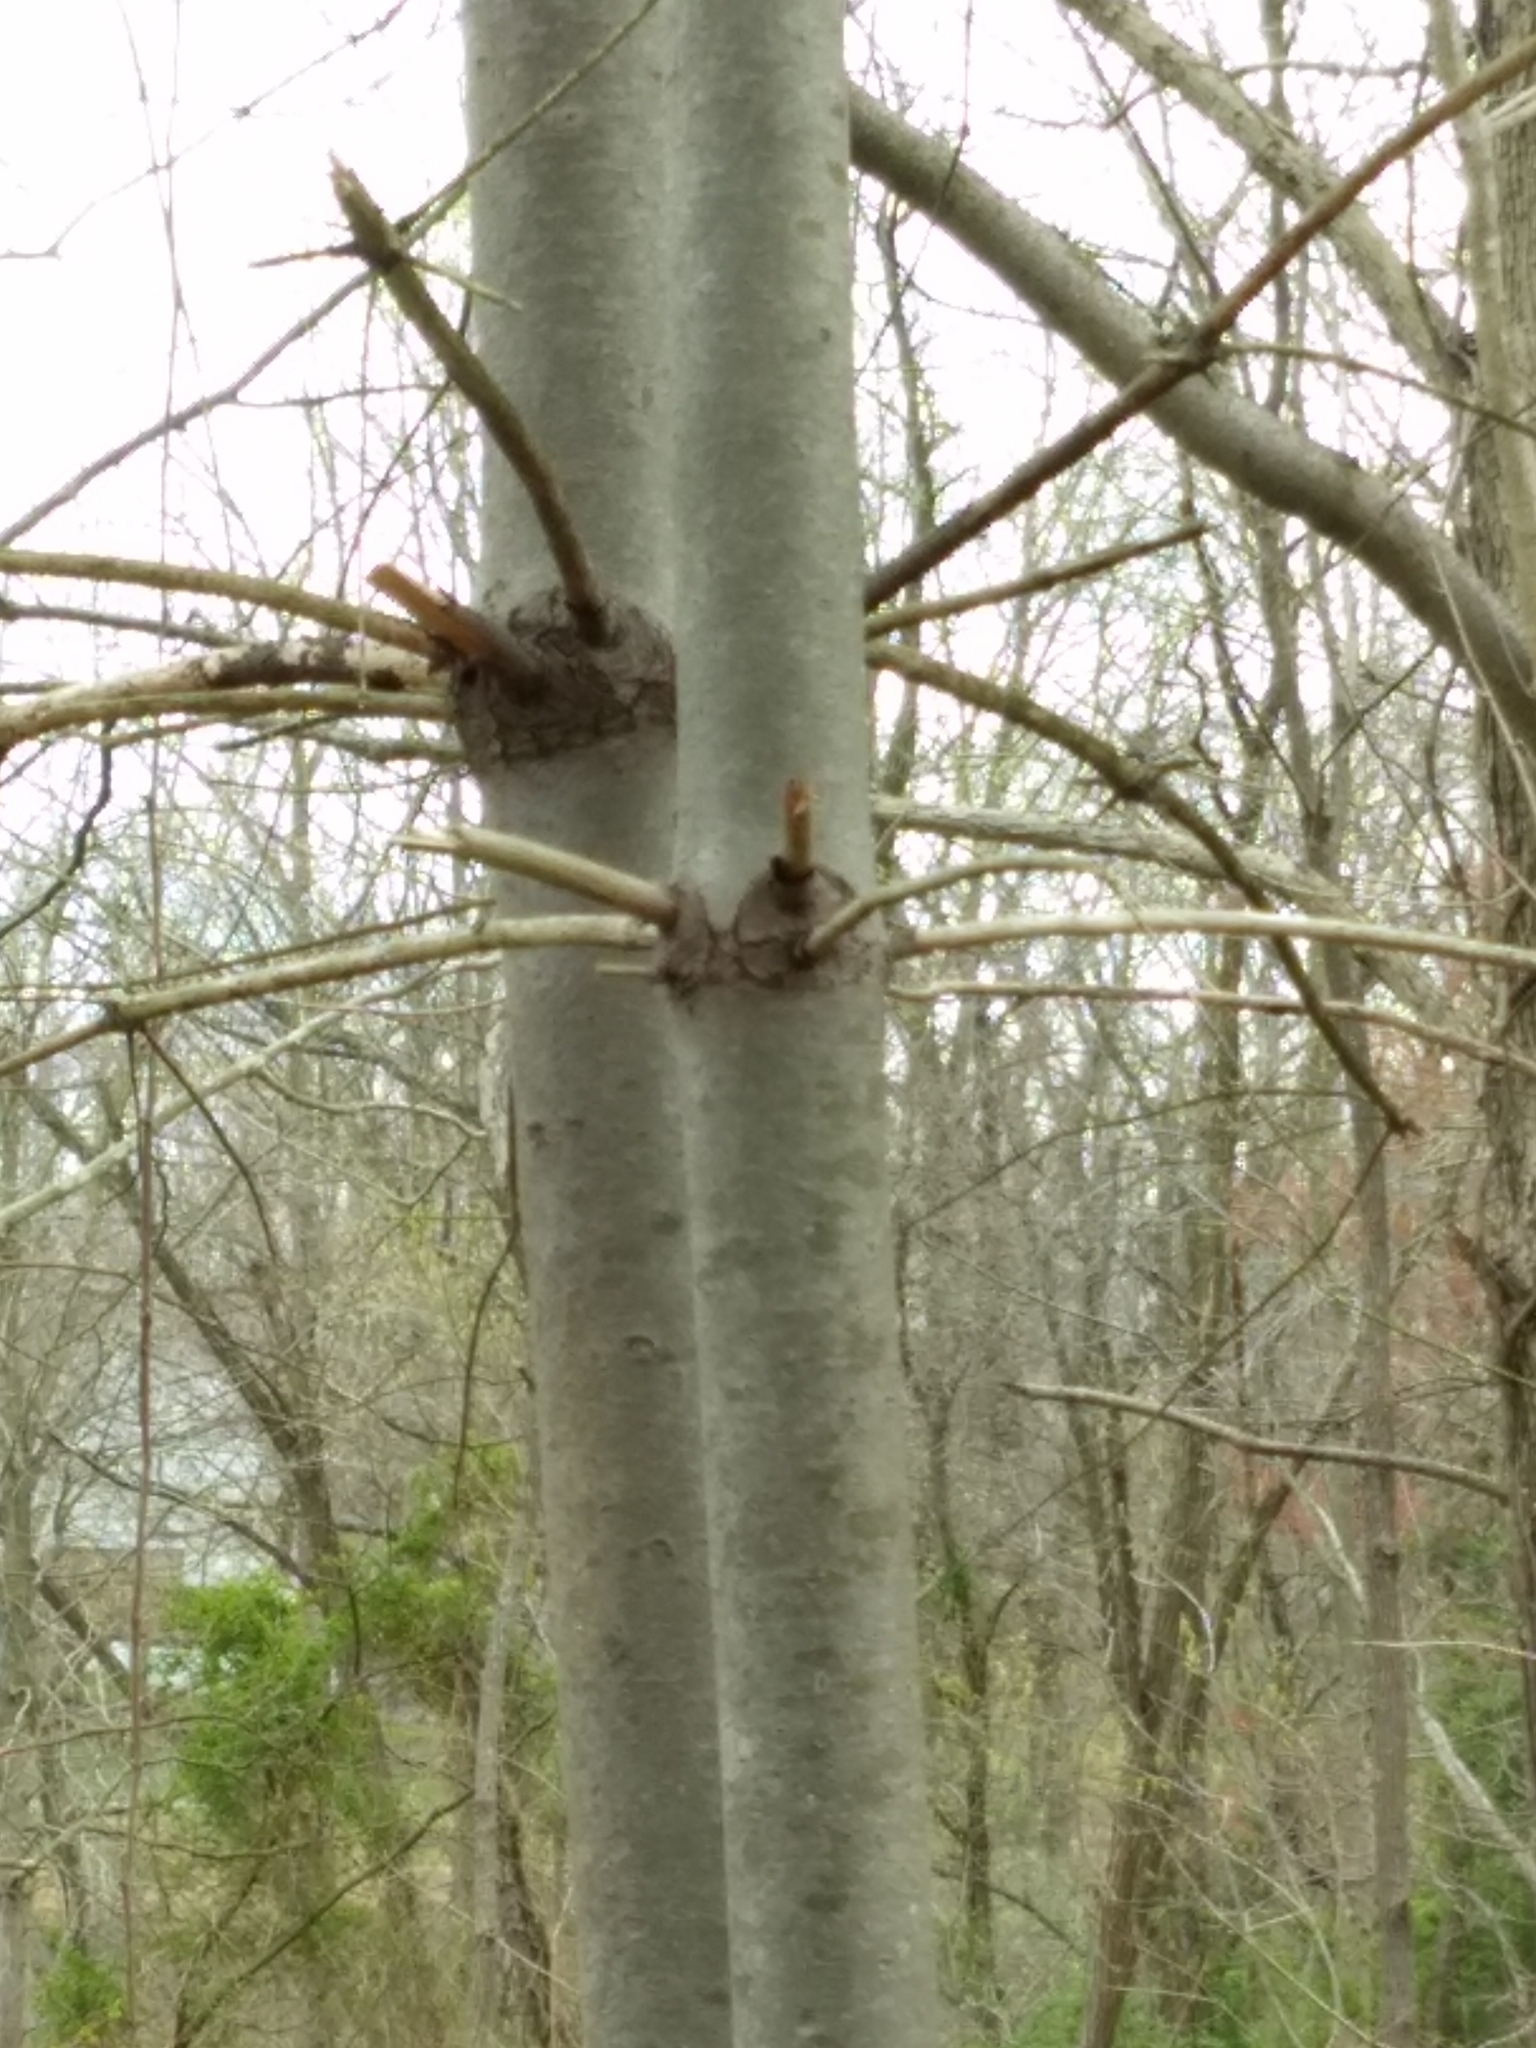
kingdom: Plantae
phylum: Tracheophyta
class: Pinopsida
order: Pinales
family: Pinaceae
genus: Pinus
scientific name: Pinus strobus
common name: Weymouth pine
